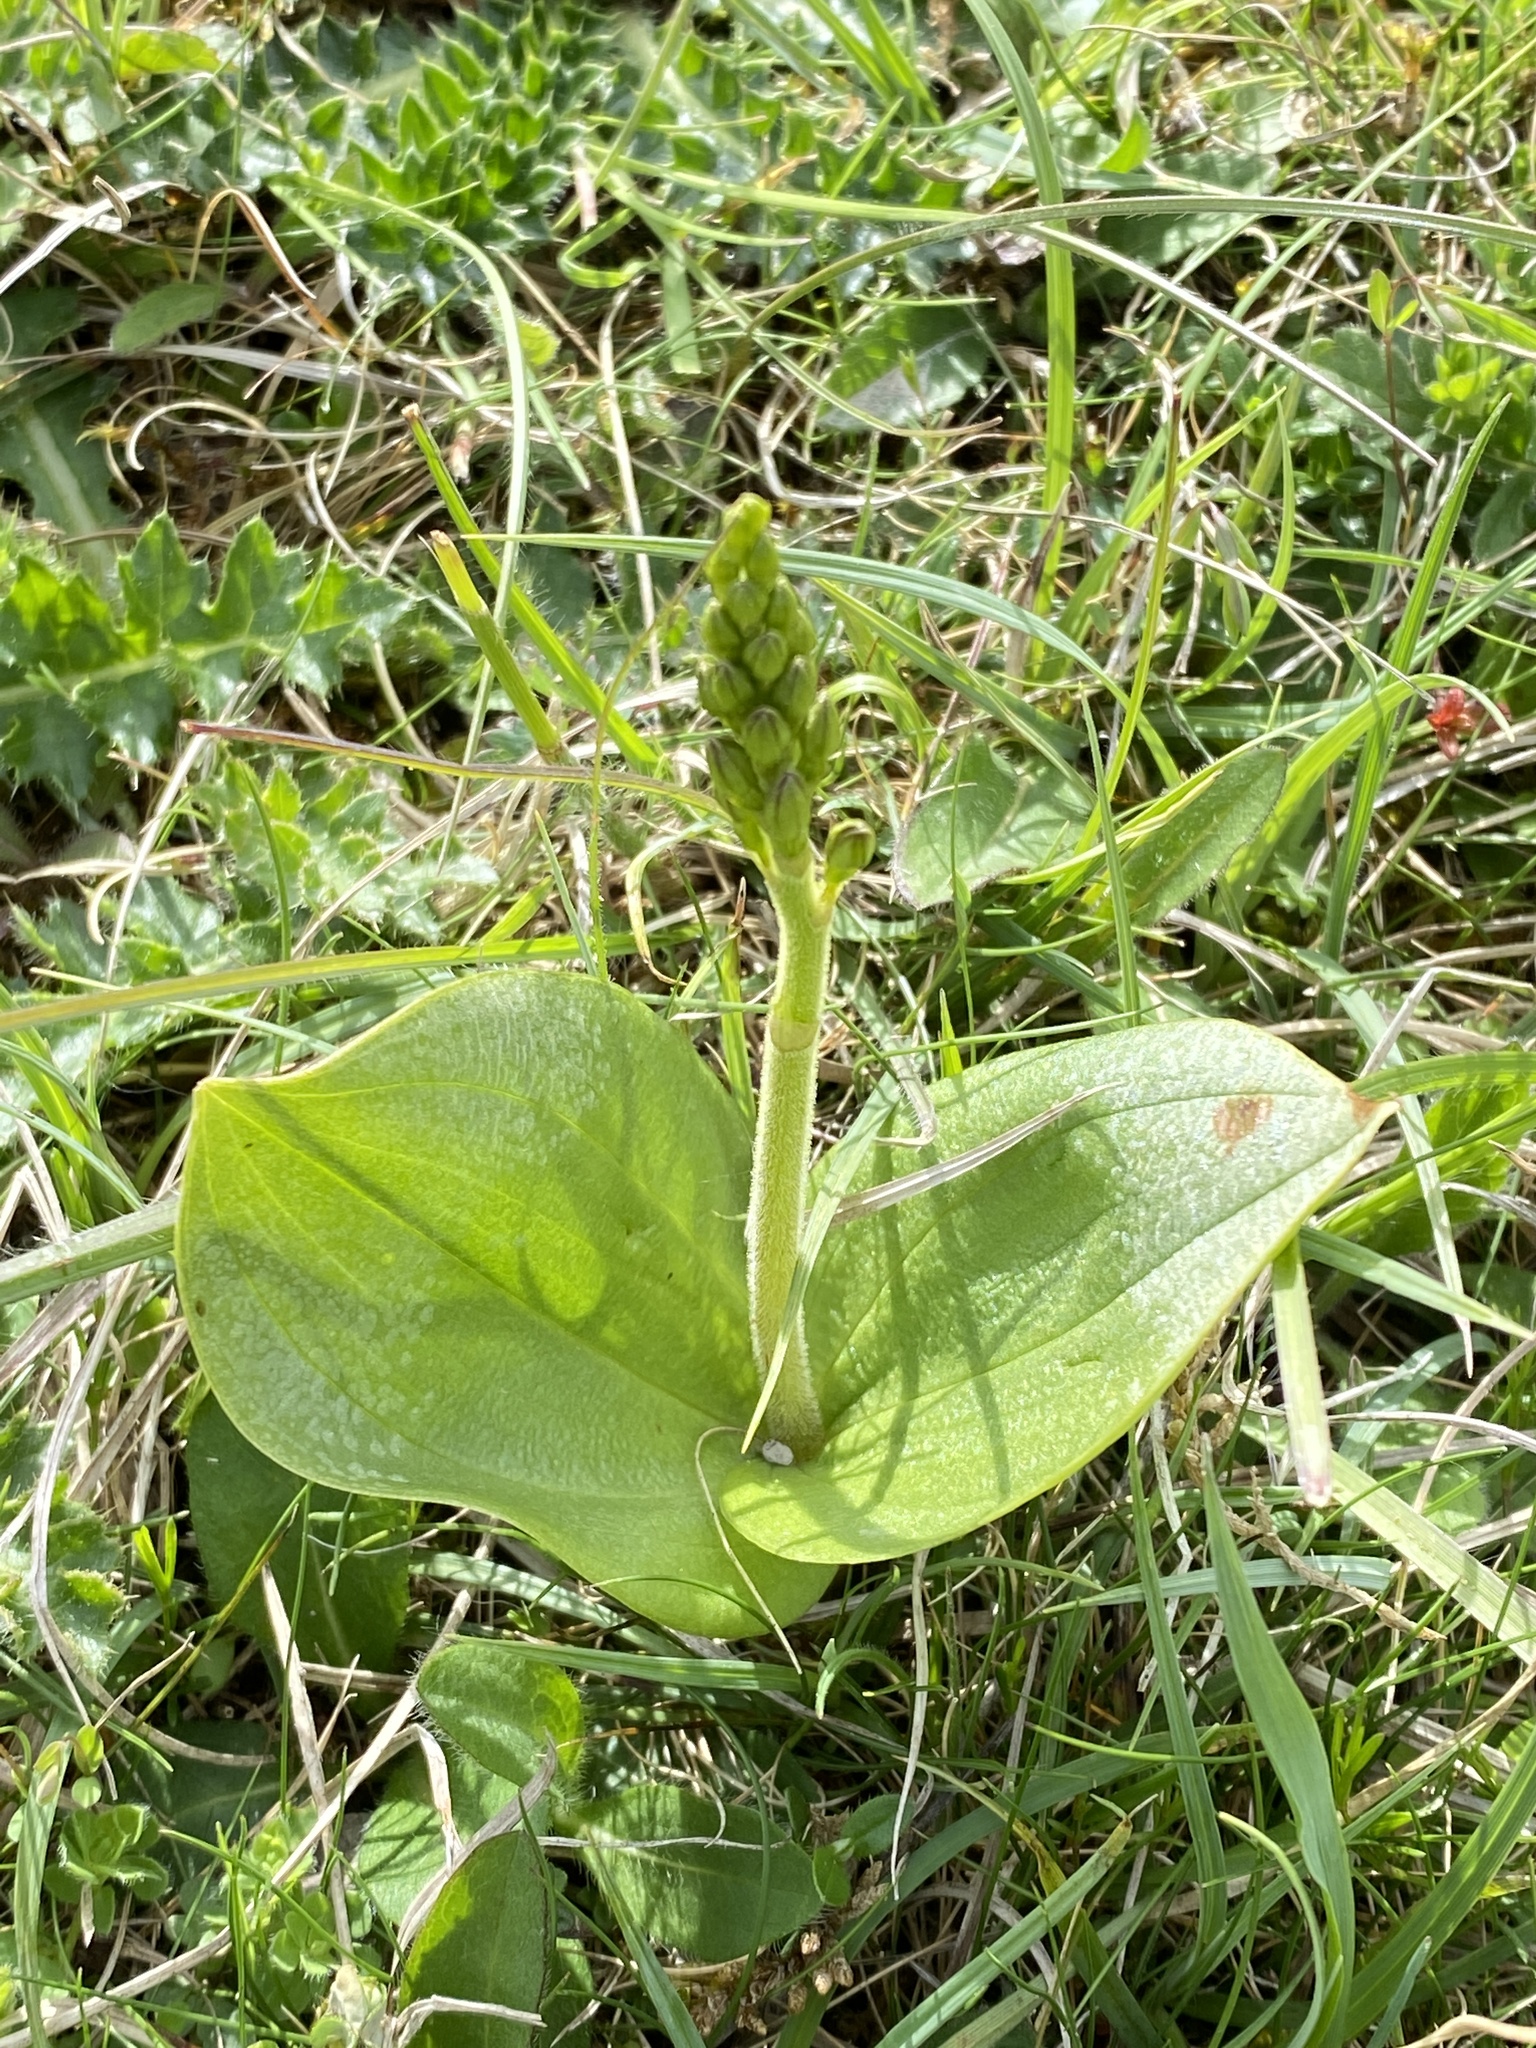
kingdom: Plantae
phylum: Tracheophyta
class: Liliopsida
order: Asparagales
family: Orchidaceae
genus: Neottia
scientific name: Neottia ovata
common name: Common twayblade
